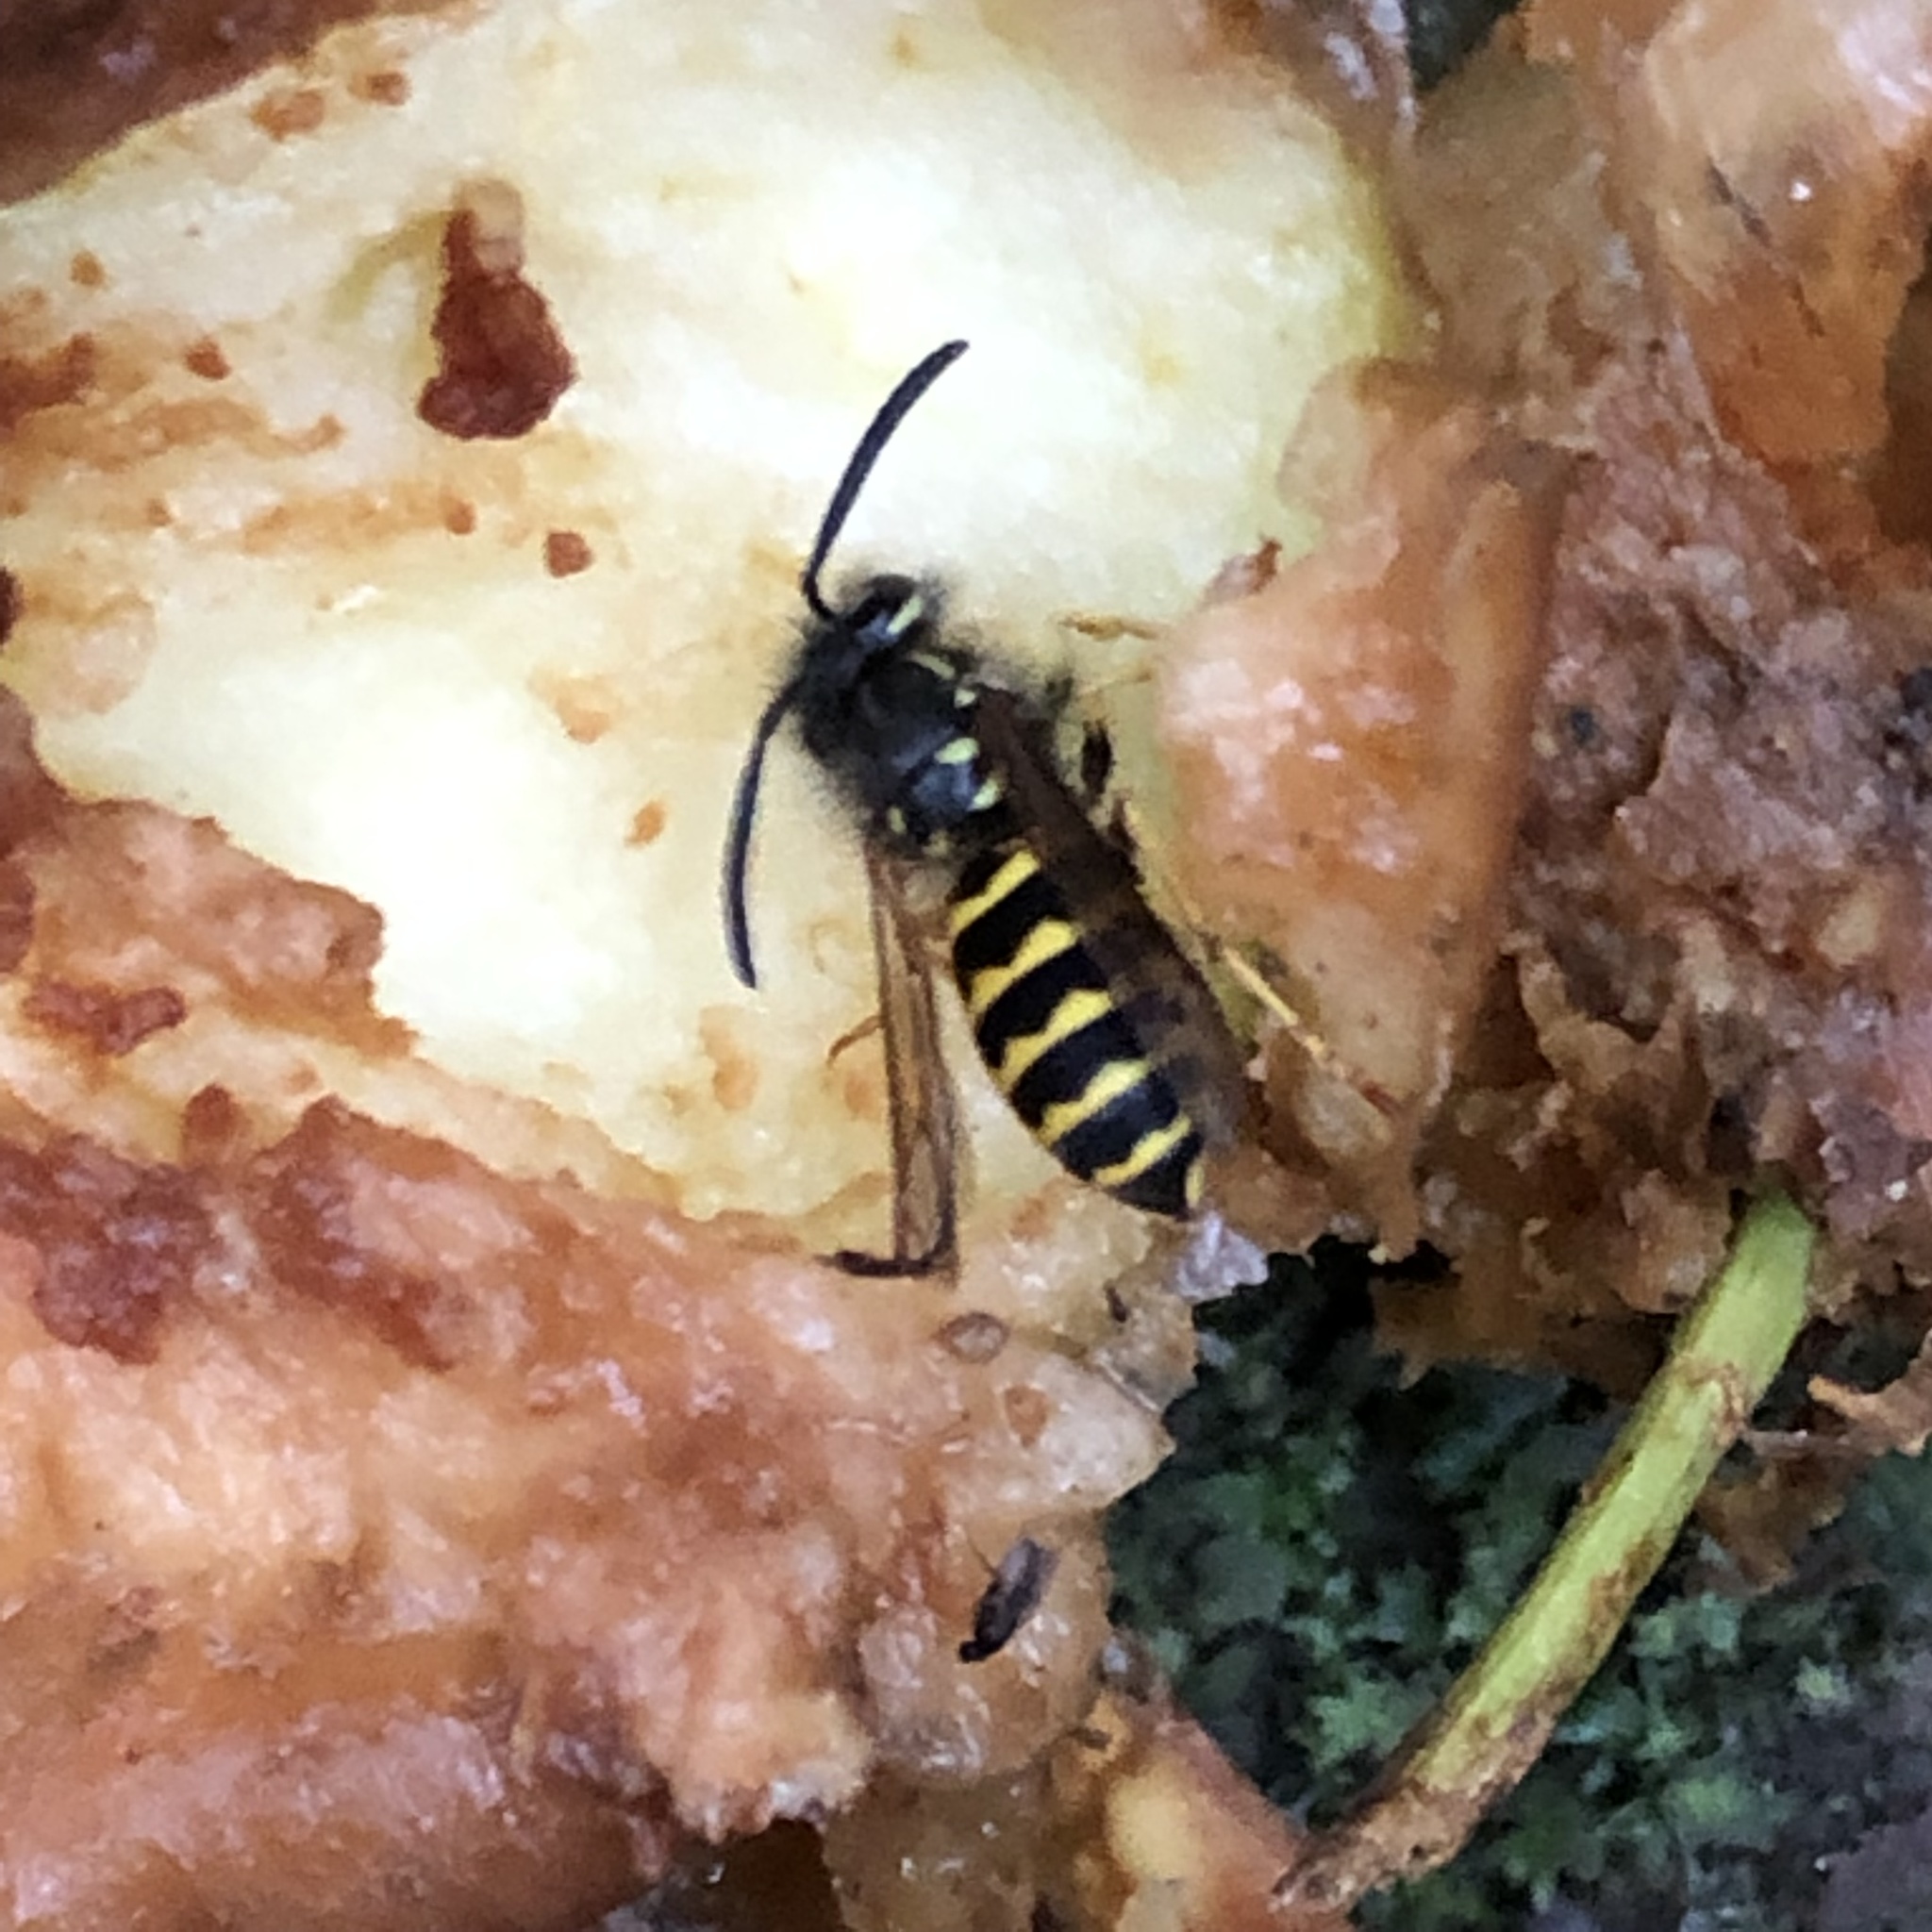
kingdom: Animalia
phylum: Arthropoda
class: Insecta
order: Hymenoptera
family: Vespidae
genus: Vespula
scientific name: Vespula alascensis
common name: Alaska yellowjacket
